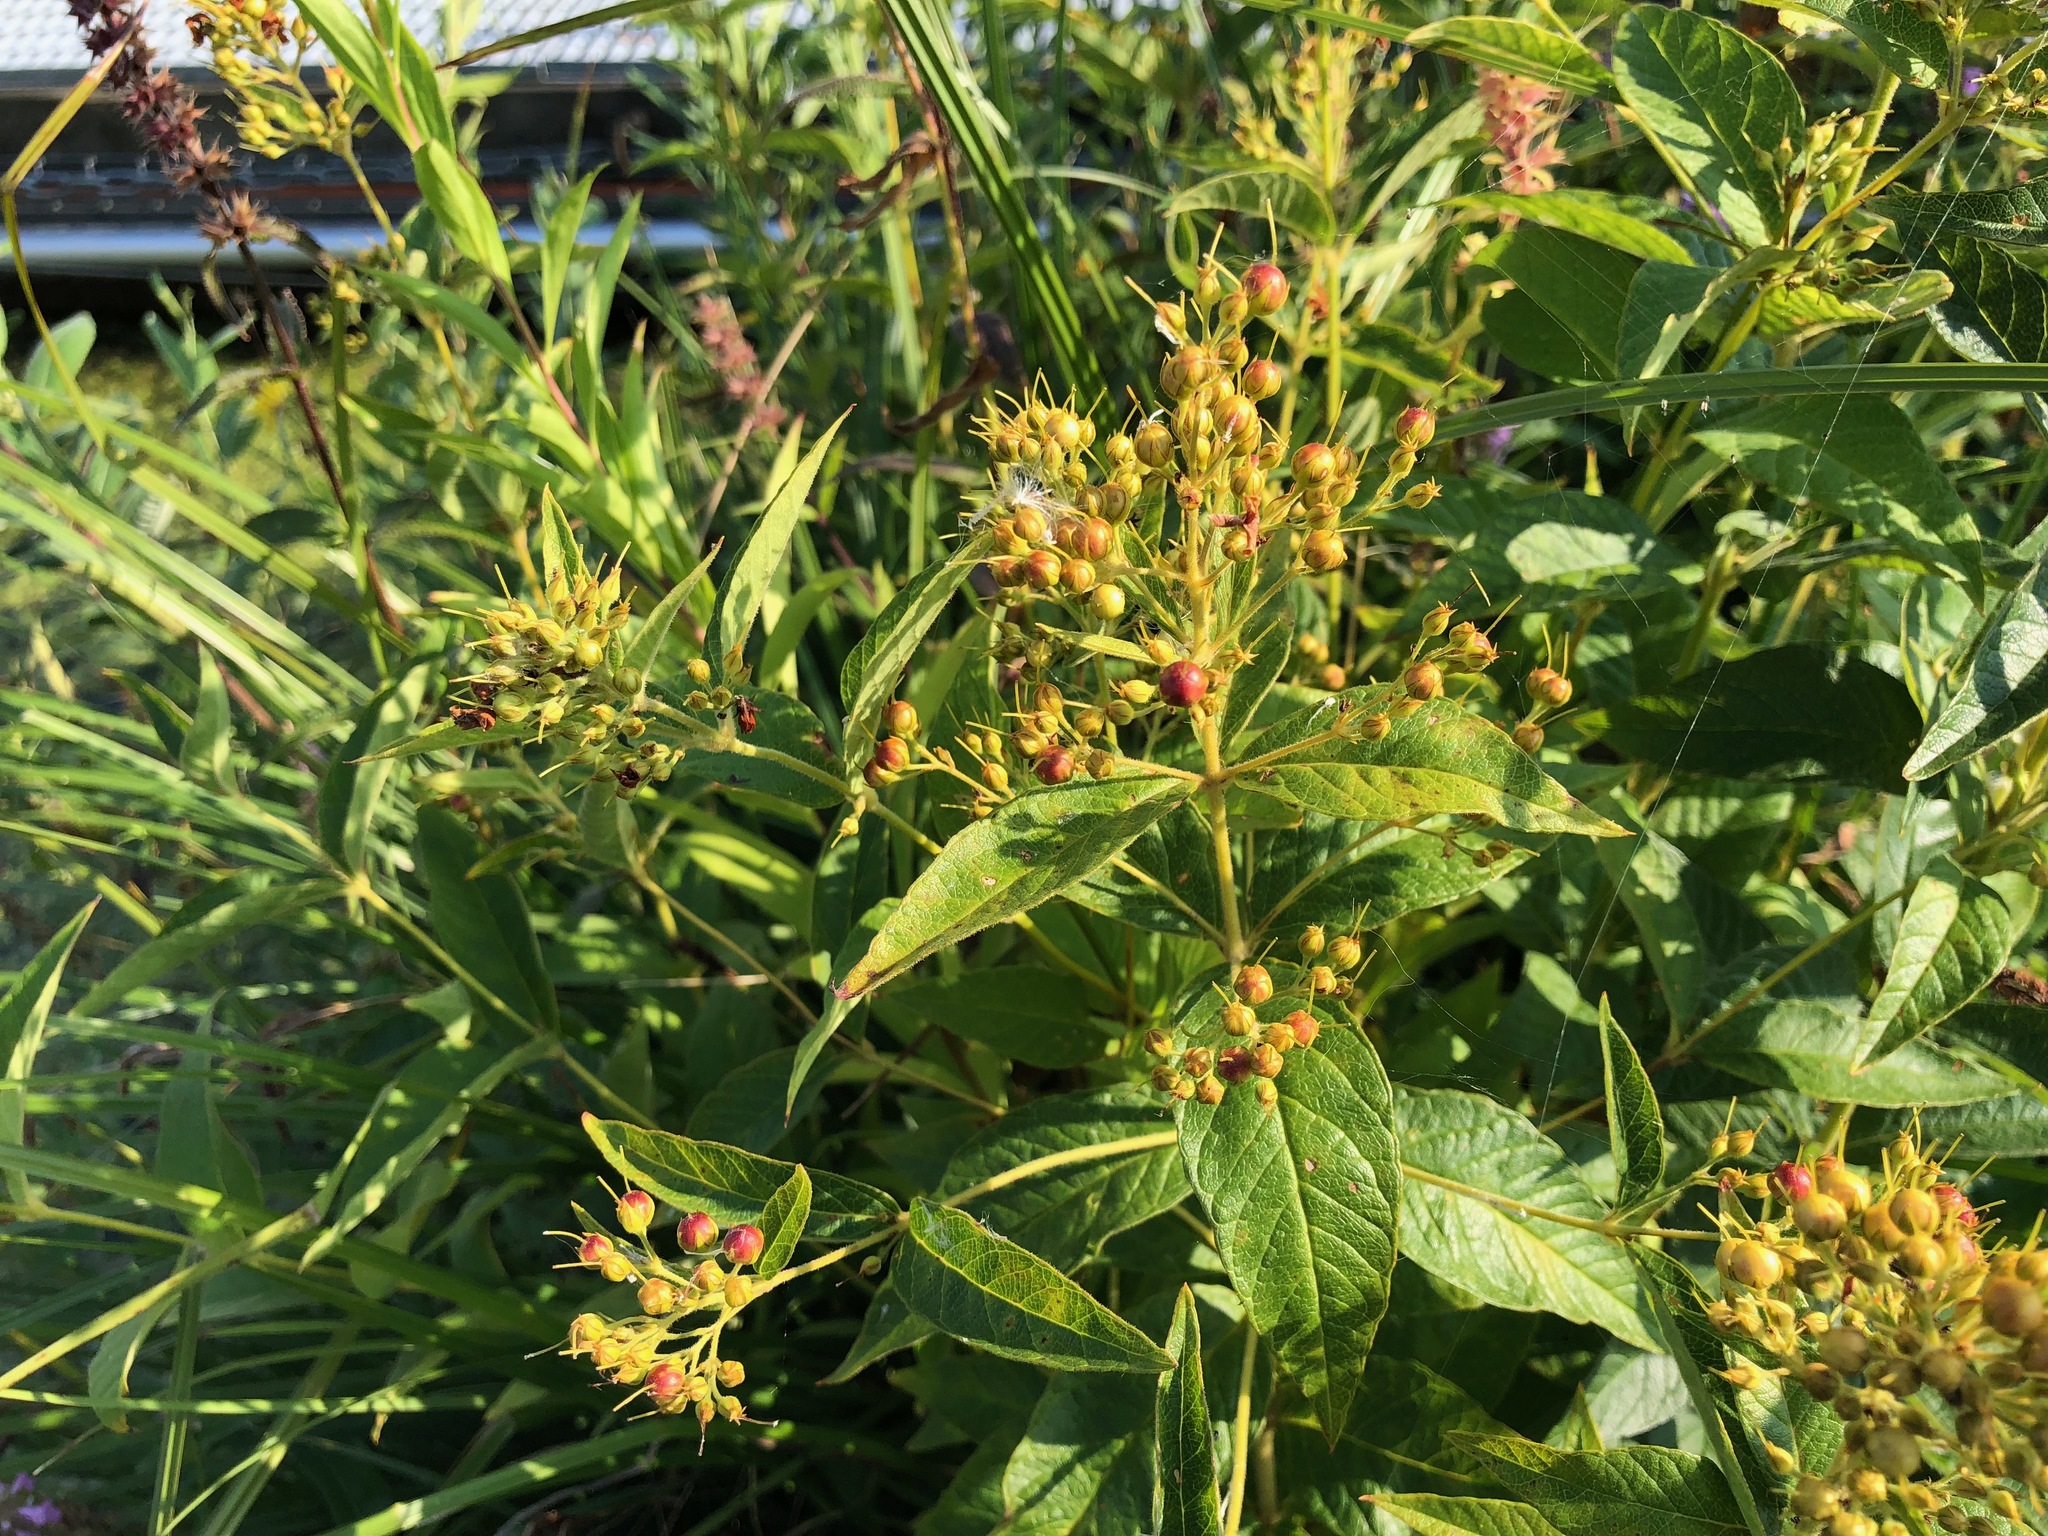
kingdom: Plantae
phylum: Tracheophyta
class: Magnoliopsida
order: Ericales
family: Primulaceae
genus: Lysimachia
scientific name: Lysimachia vulgaris
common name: Yellow loosestrife
